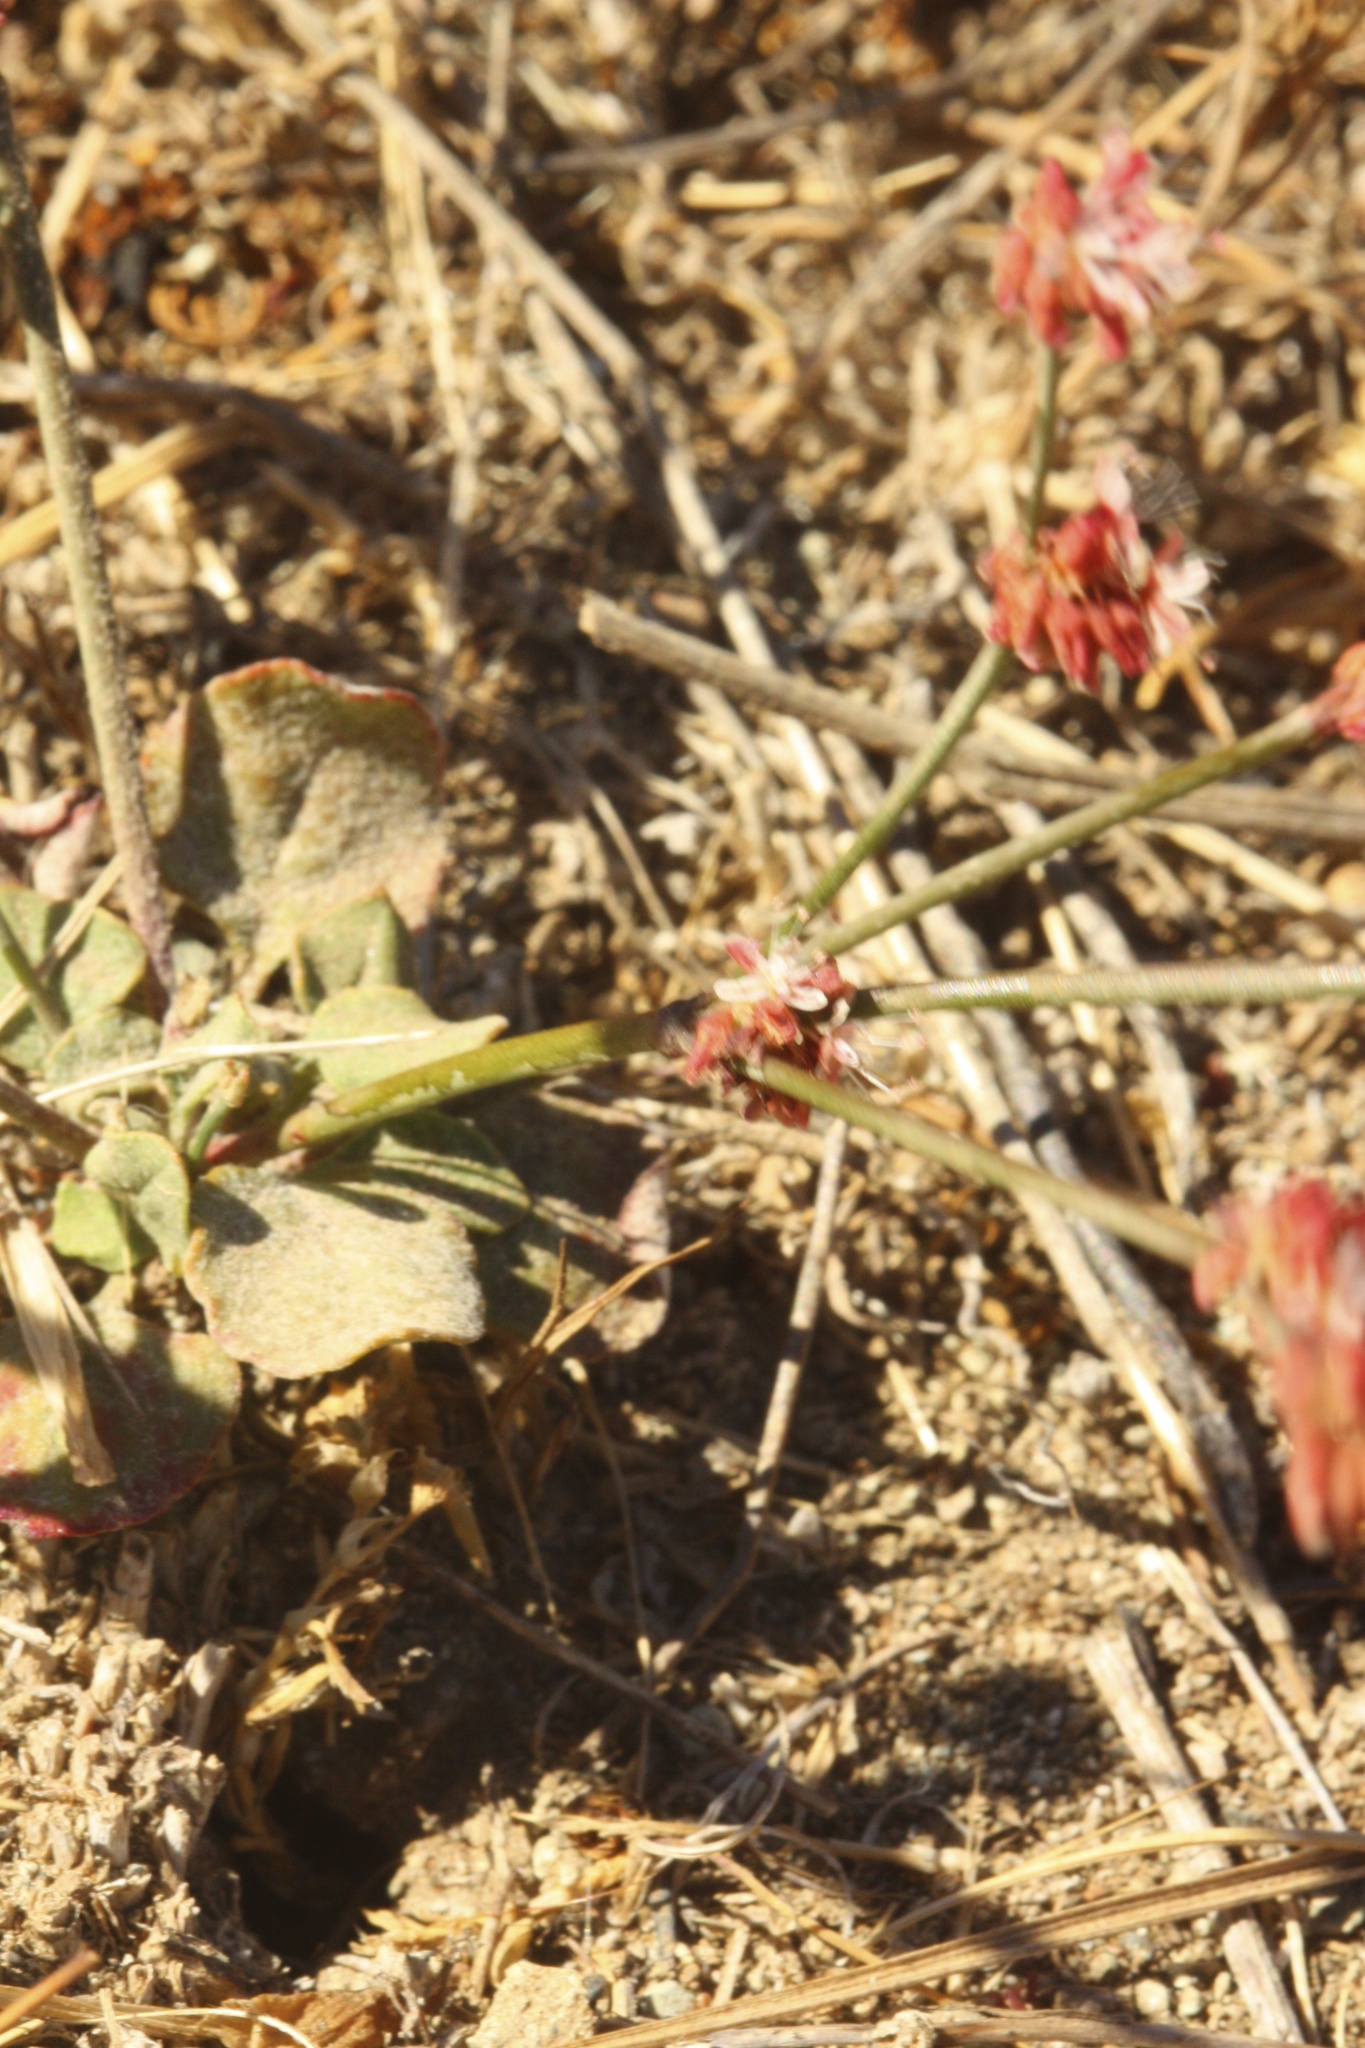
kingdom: Plantae
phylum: Tracheophyta
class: Magnoliopsida
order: Caryophyllales
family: Polygonaceae
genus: Eriogonum
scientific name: Eriogonum luteolum
